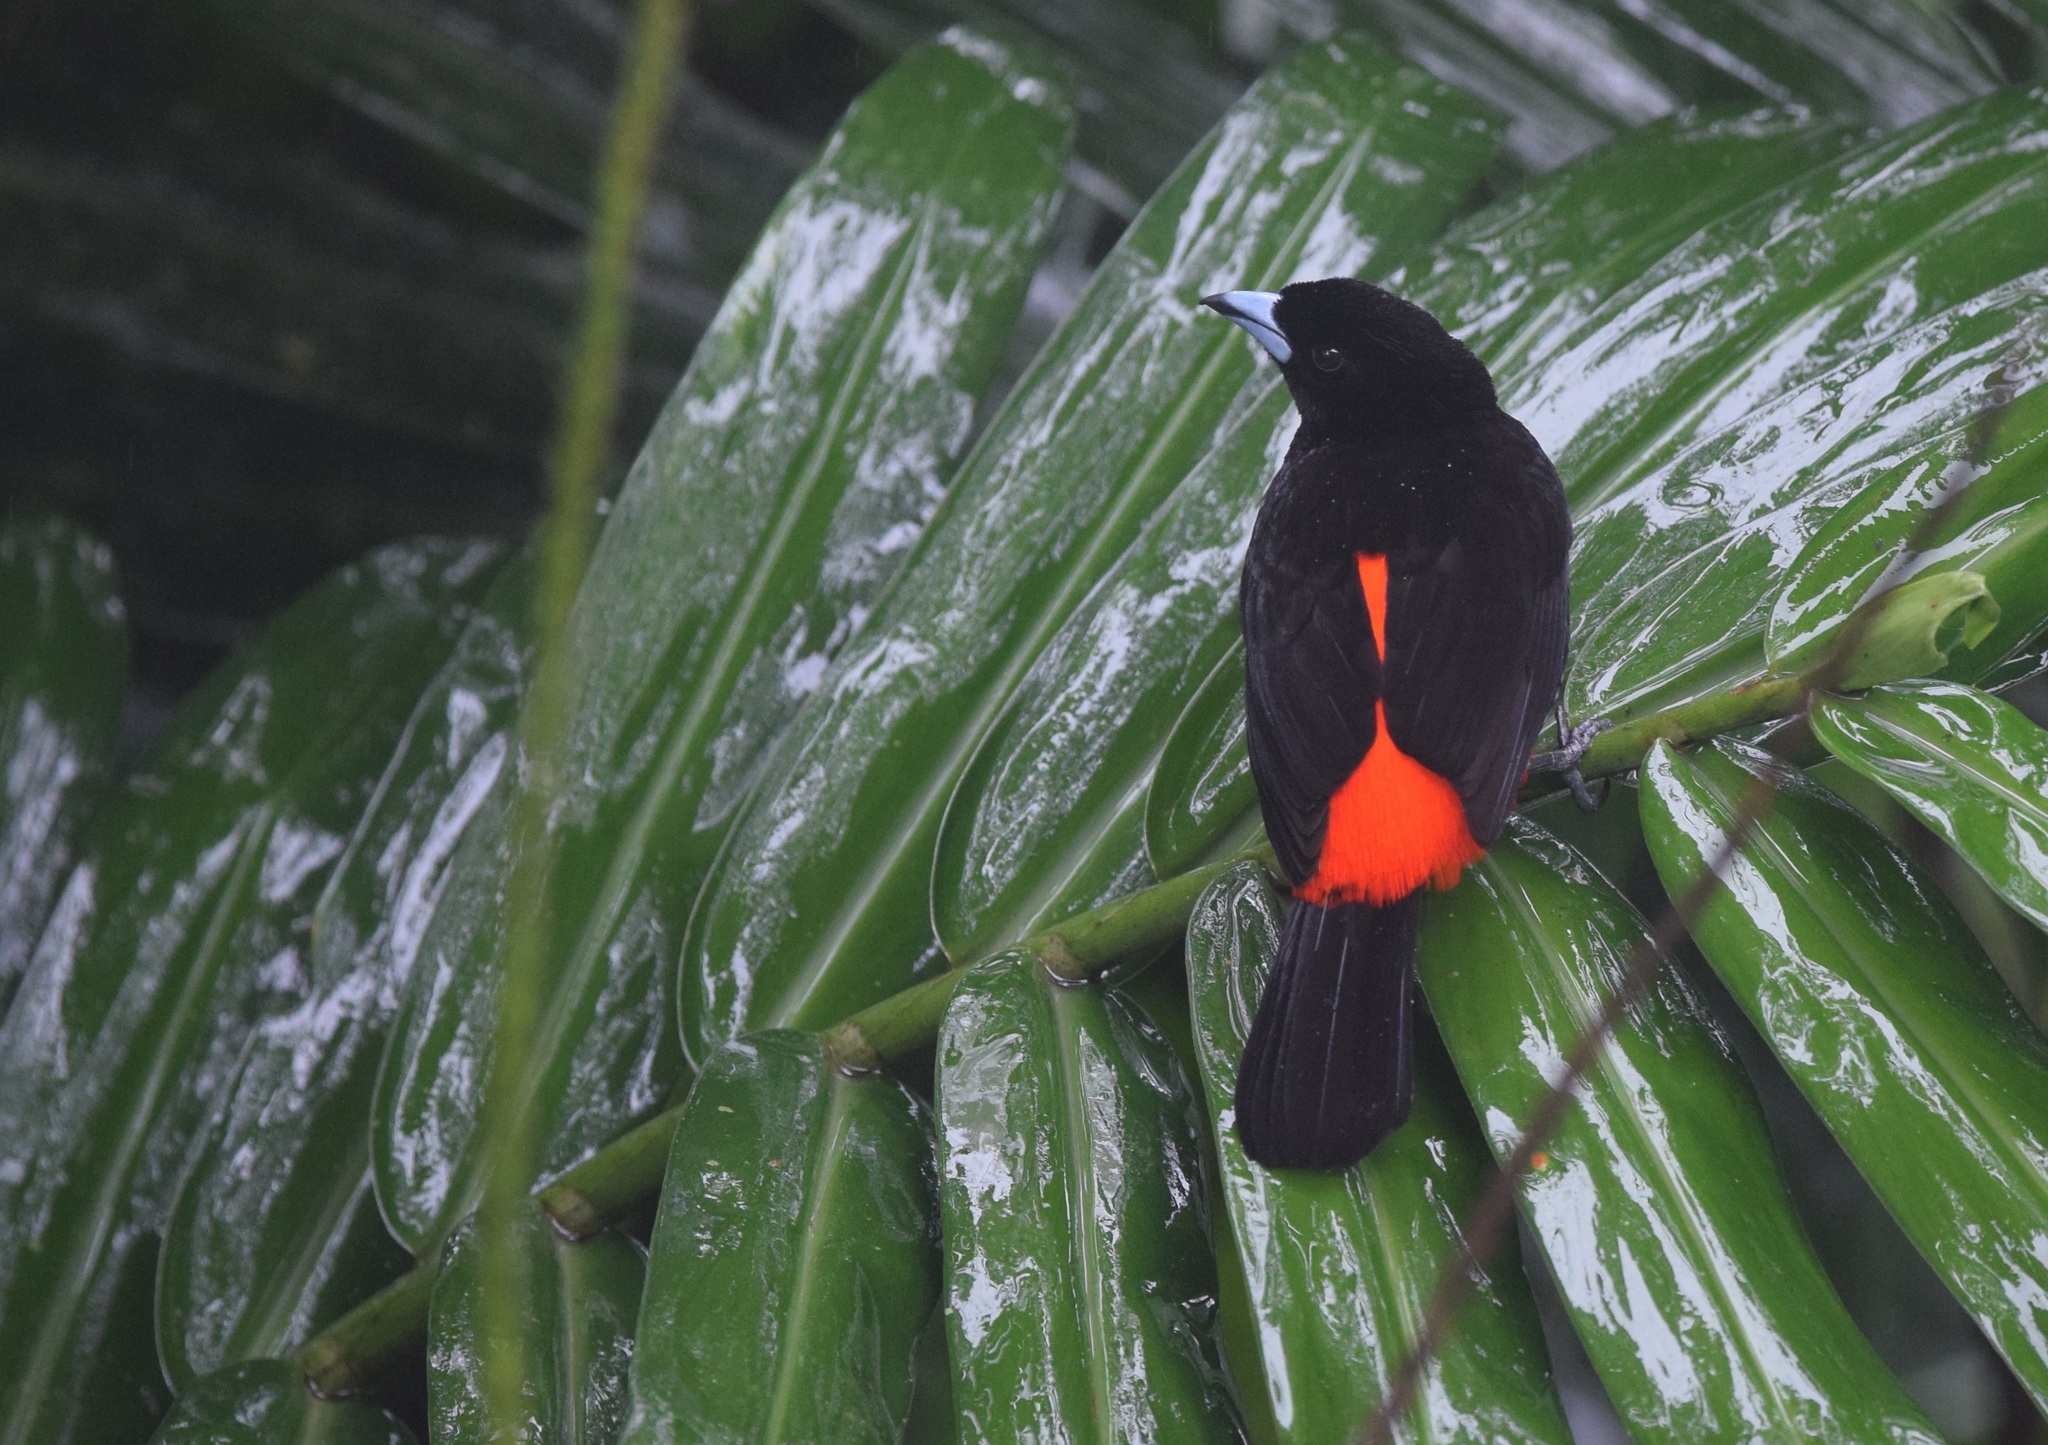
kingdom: Animalia
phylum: Chordata
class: Aves
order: Passeriformes
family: Thraupidae
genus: Ramphocelus
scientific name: Ramphocelus passerinii
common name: Passerini's tanager
